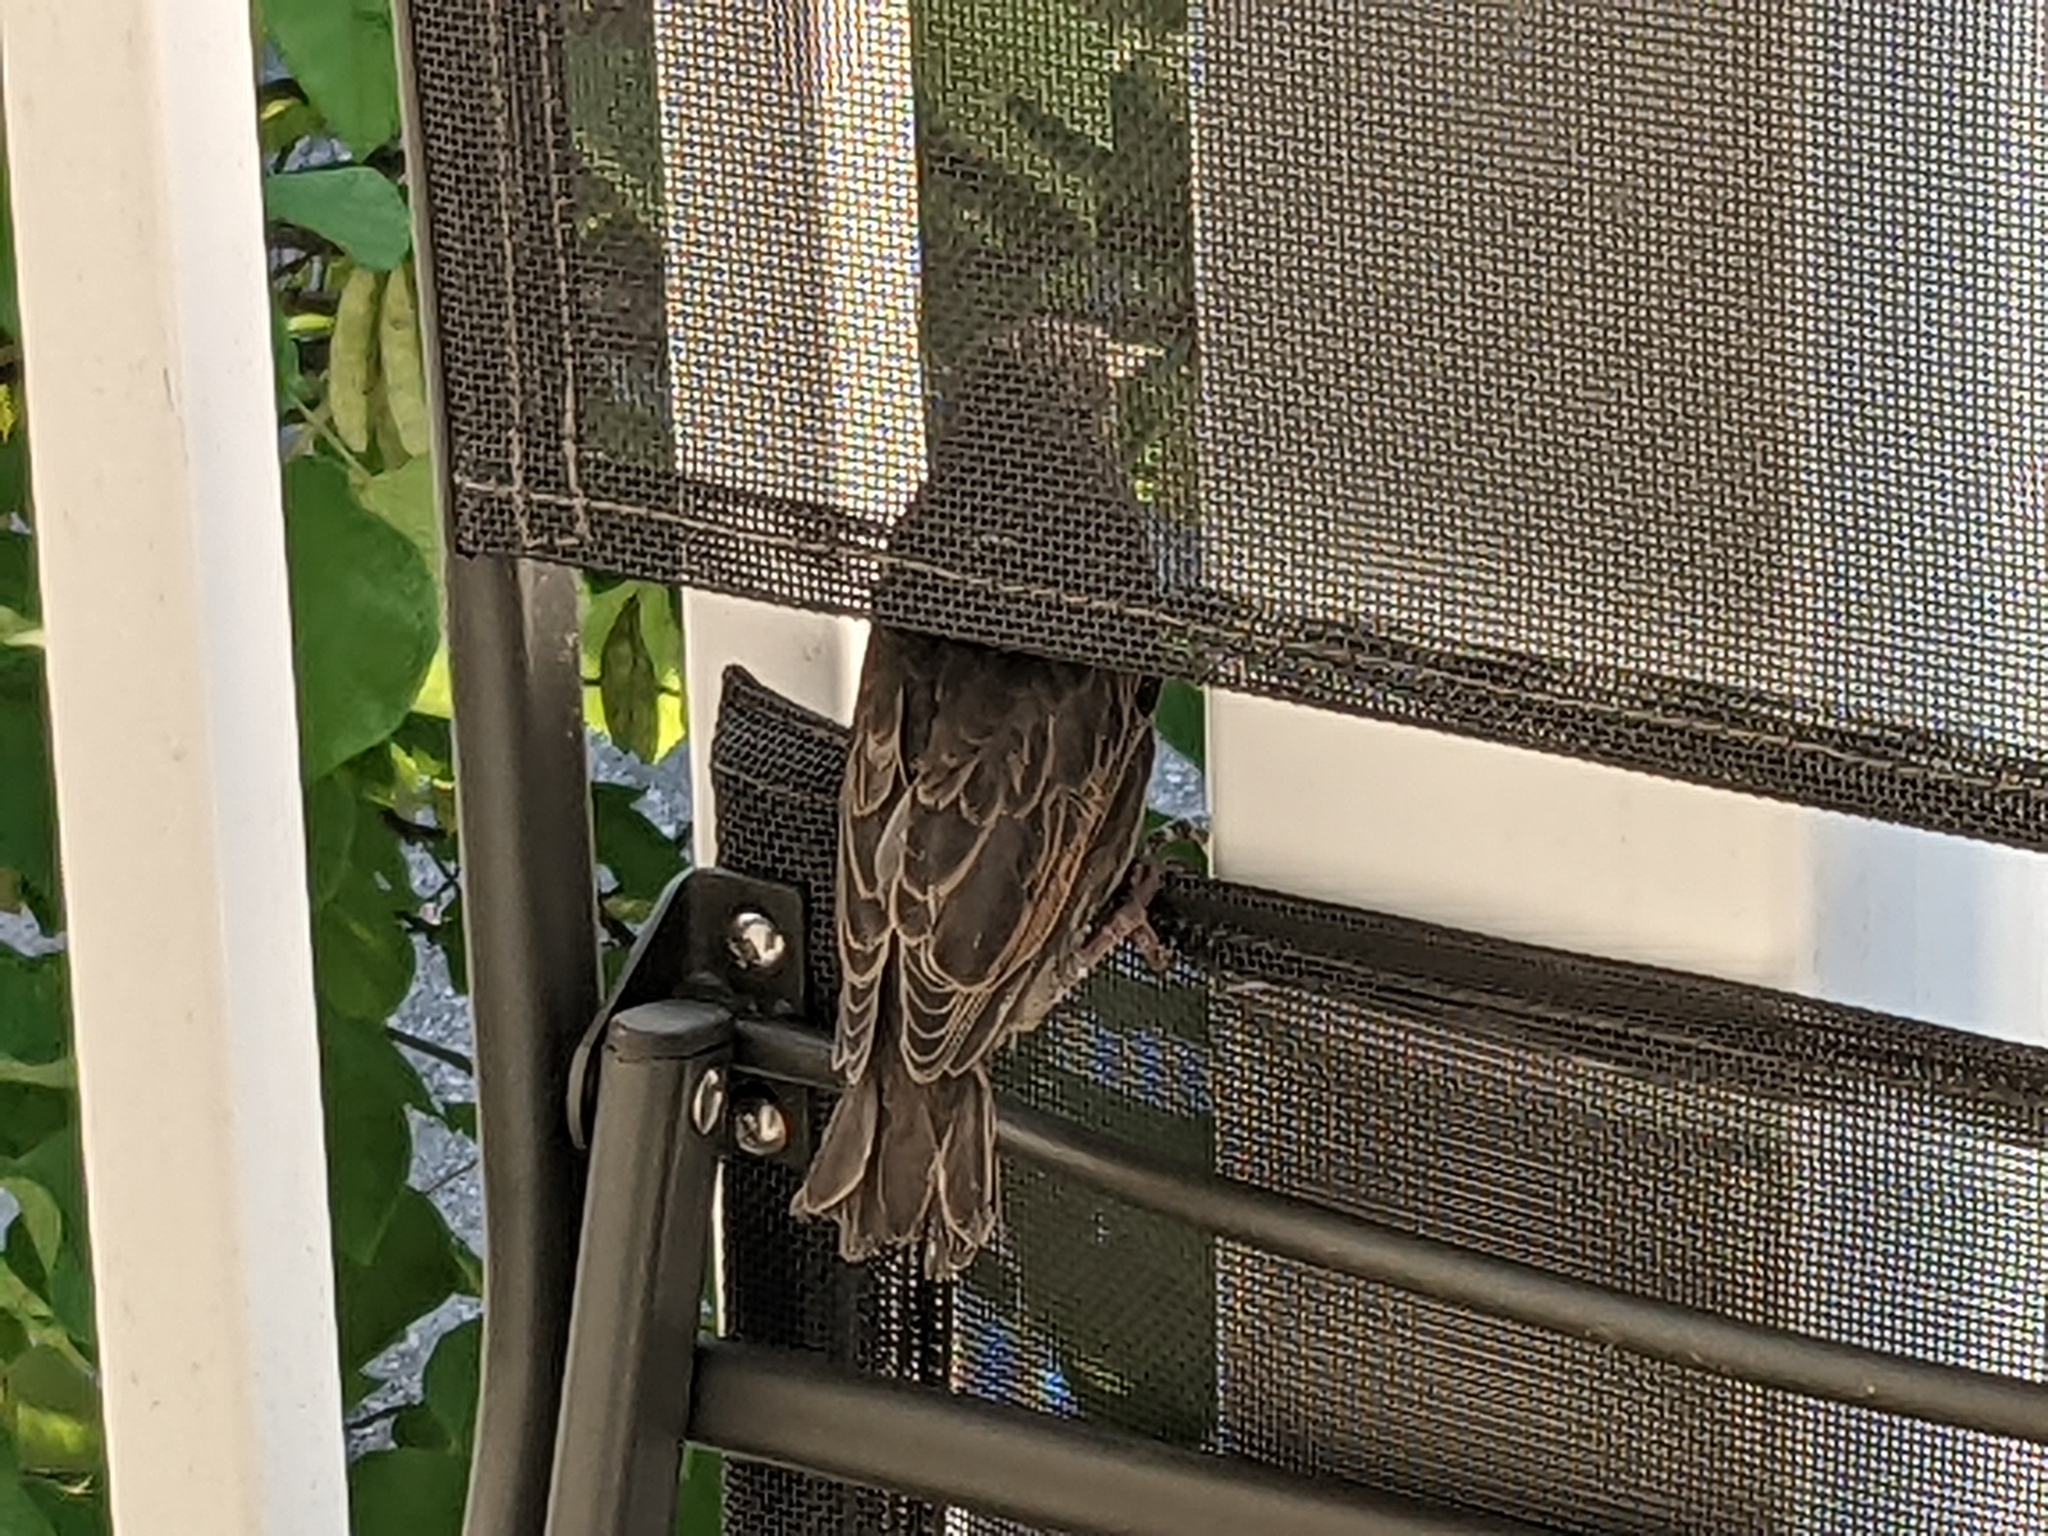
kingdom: Animalia
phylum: Chordata
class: Aves
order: Passeriformes
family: Sturnidae
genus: Sturnus
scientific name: Sturnus vulgaris
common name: Common starling
